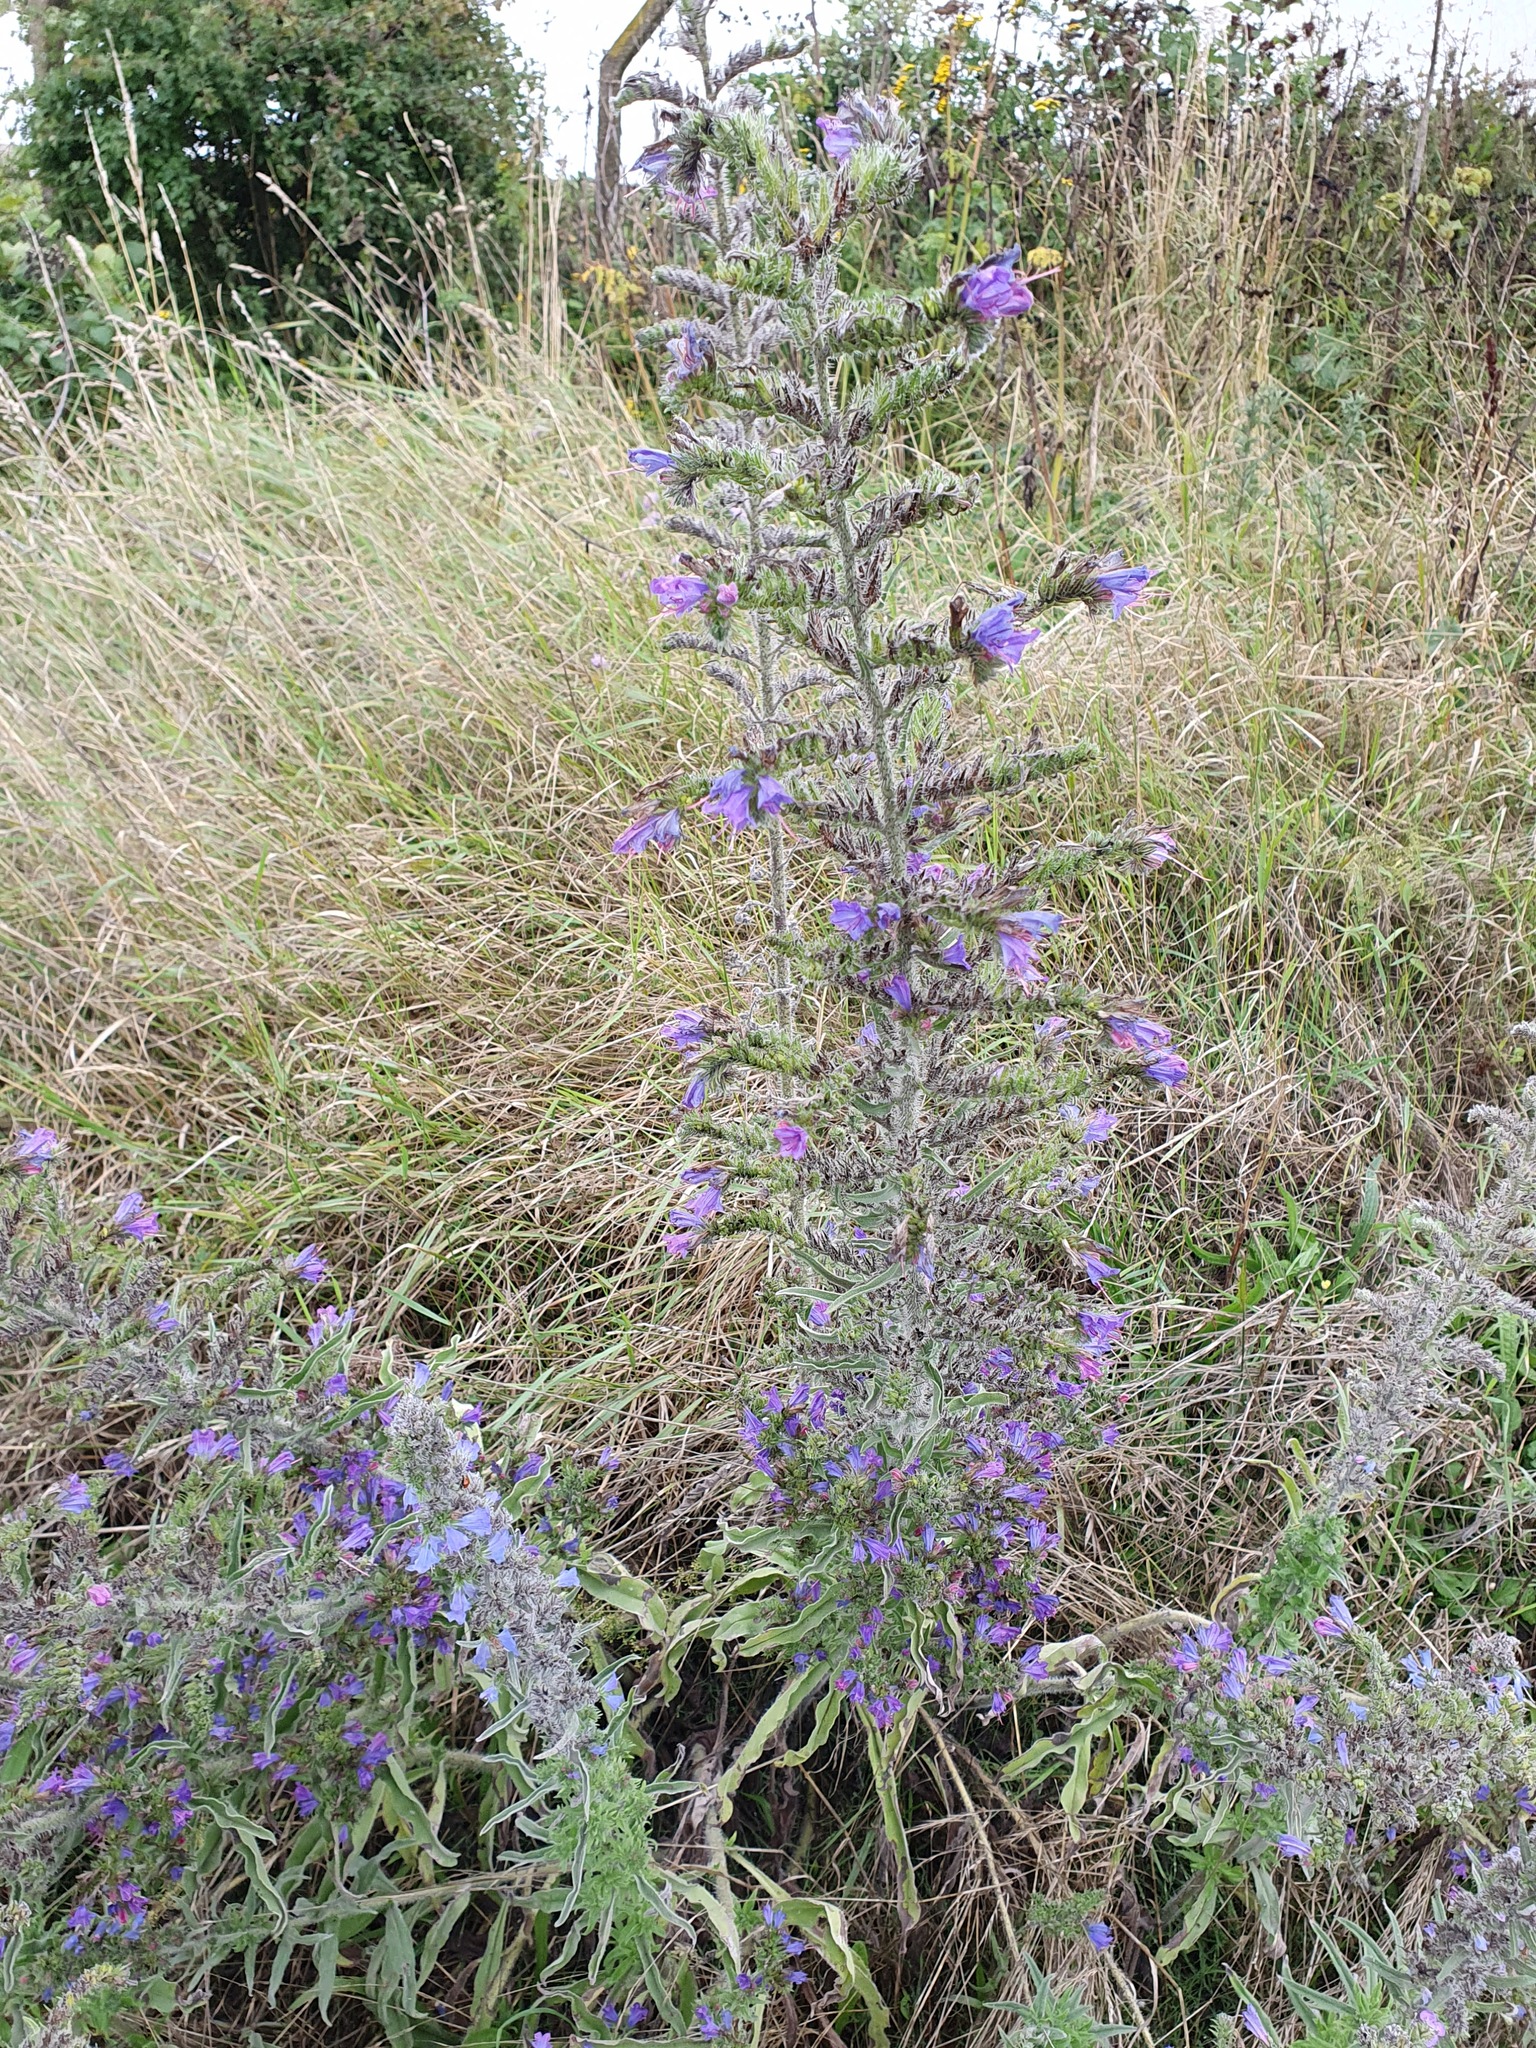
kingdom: Plantae
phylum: Tracheophyta
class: Magnoliopsida
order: Boraginales
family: Boraginaceae
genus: Echium
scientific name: Echium vulgare
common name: Common viper's bugloss
